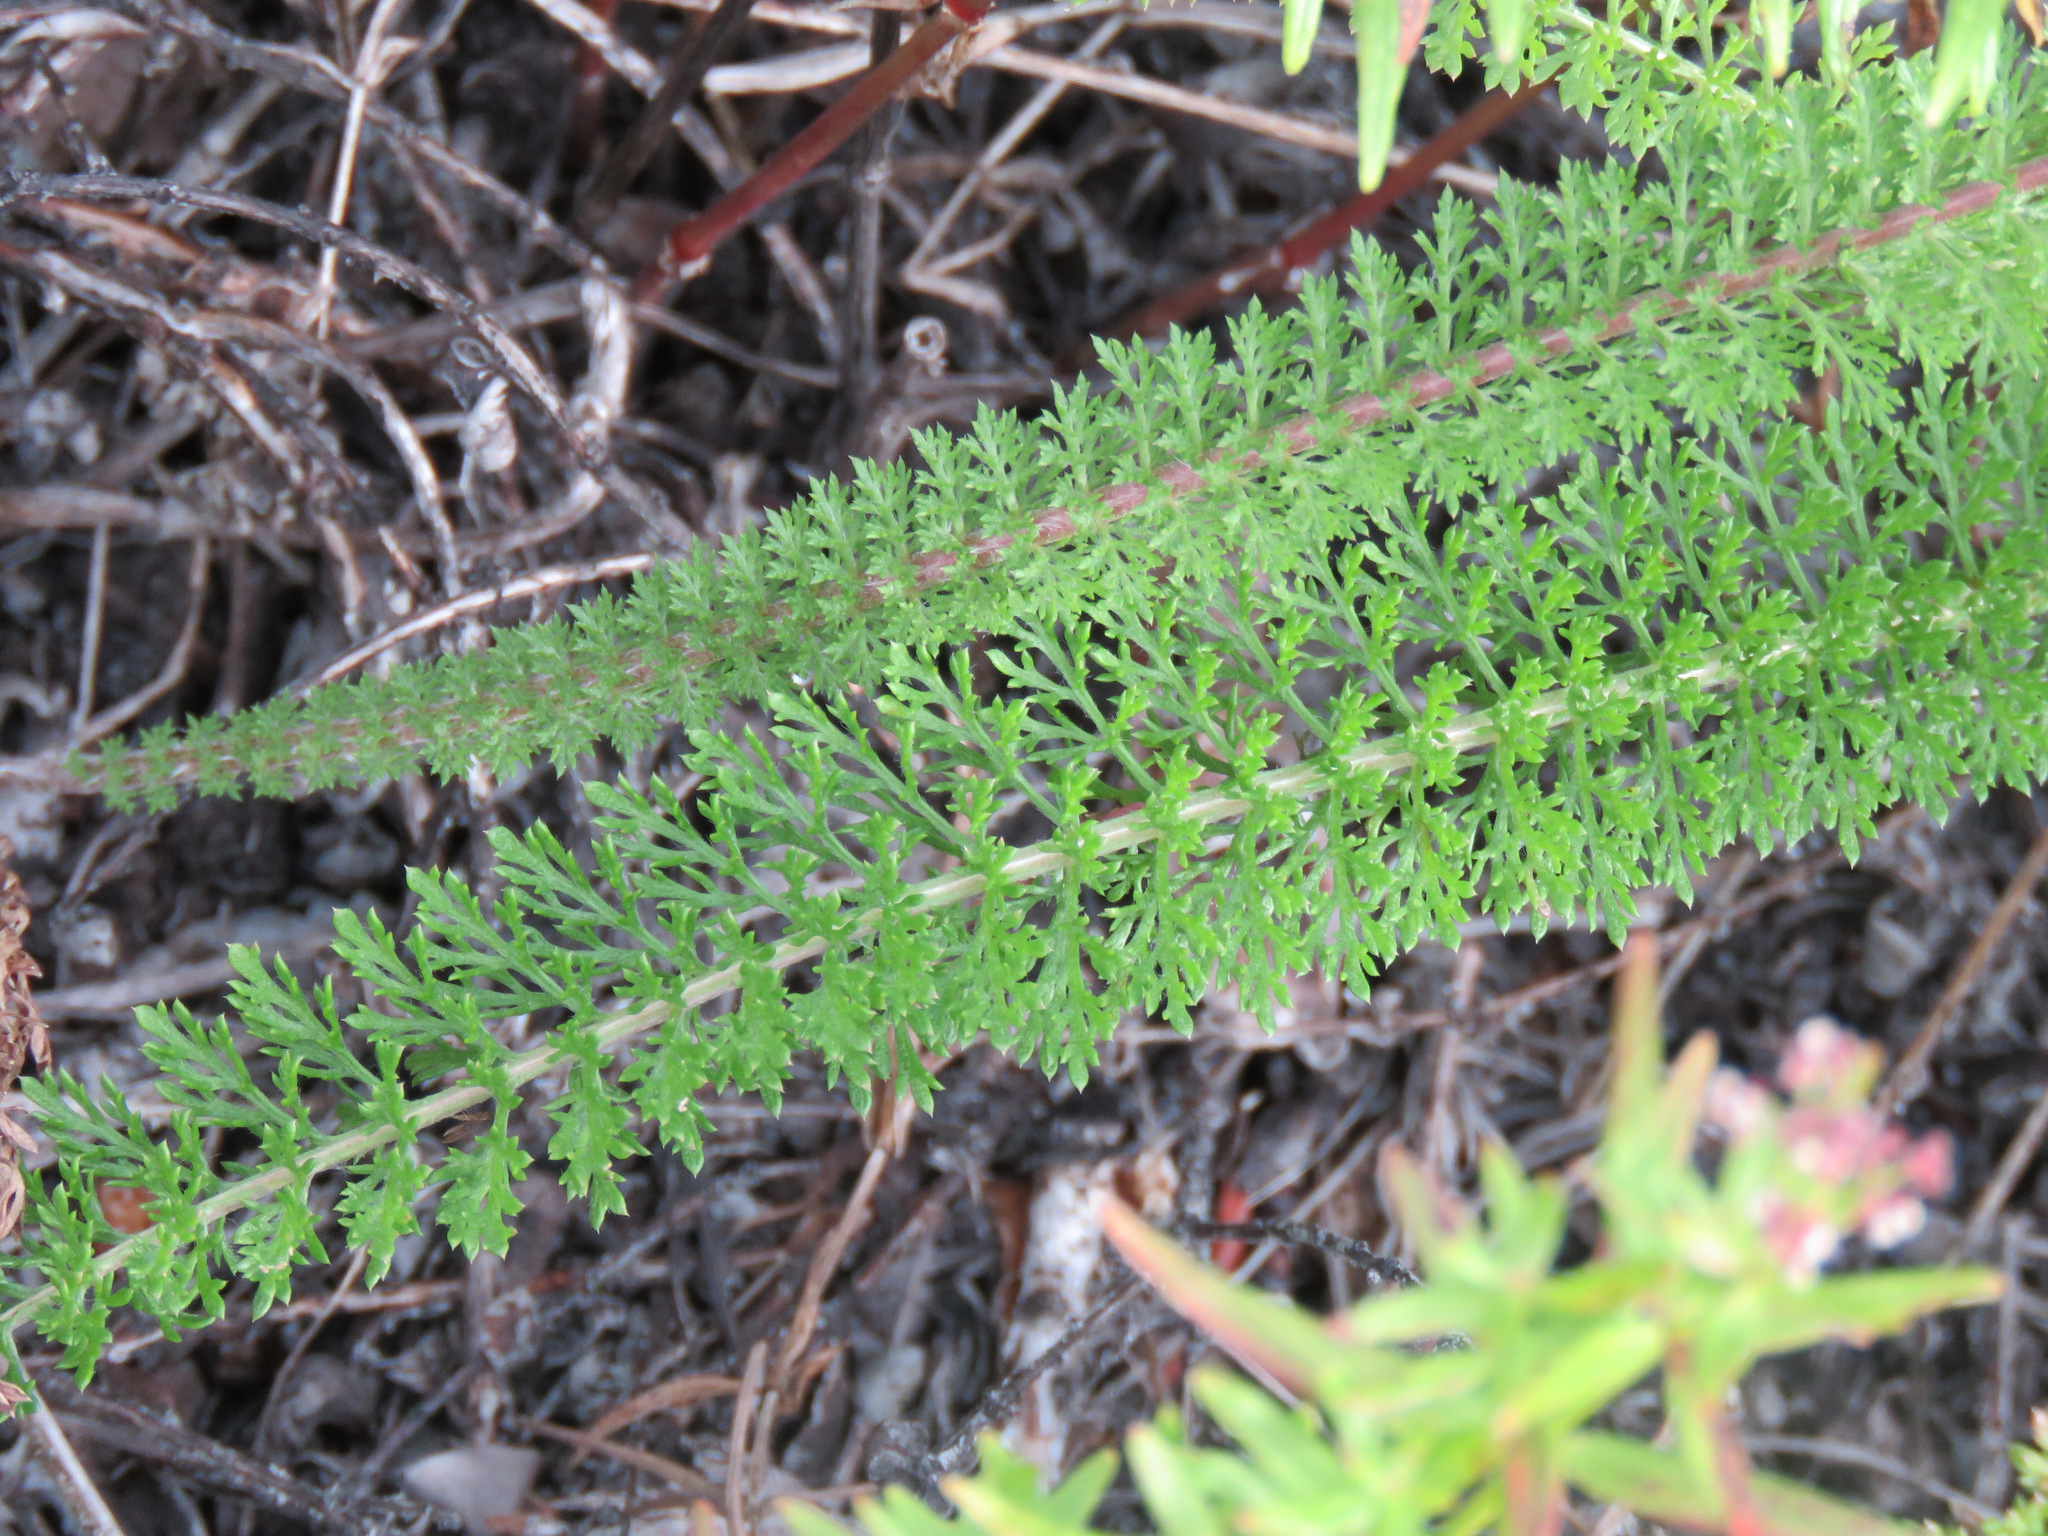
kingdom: Plantae
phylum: Tracheophyta
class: Magnoliopsida
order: Asterales
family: Asteraceae
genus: Achillea
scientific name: Achillea millefolium
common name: Yarrow
